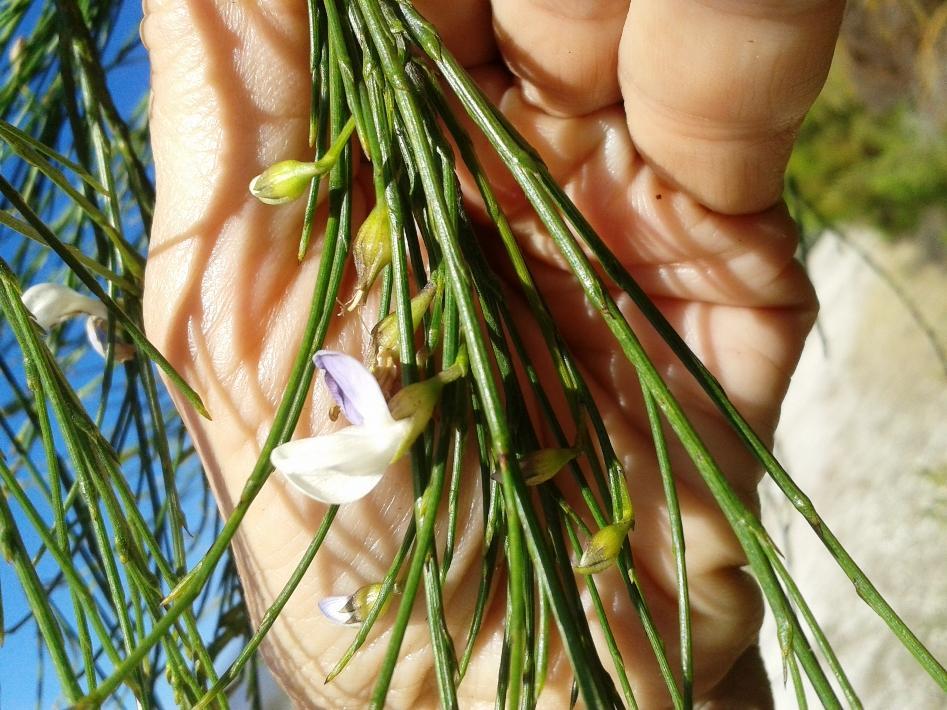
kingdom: Plantae
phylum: Tracheophyta
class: Magnoliopsida
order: Fabales
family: Fabaceae
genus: Psoralea
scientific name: Psoralea usitata
